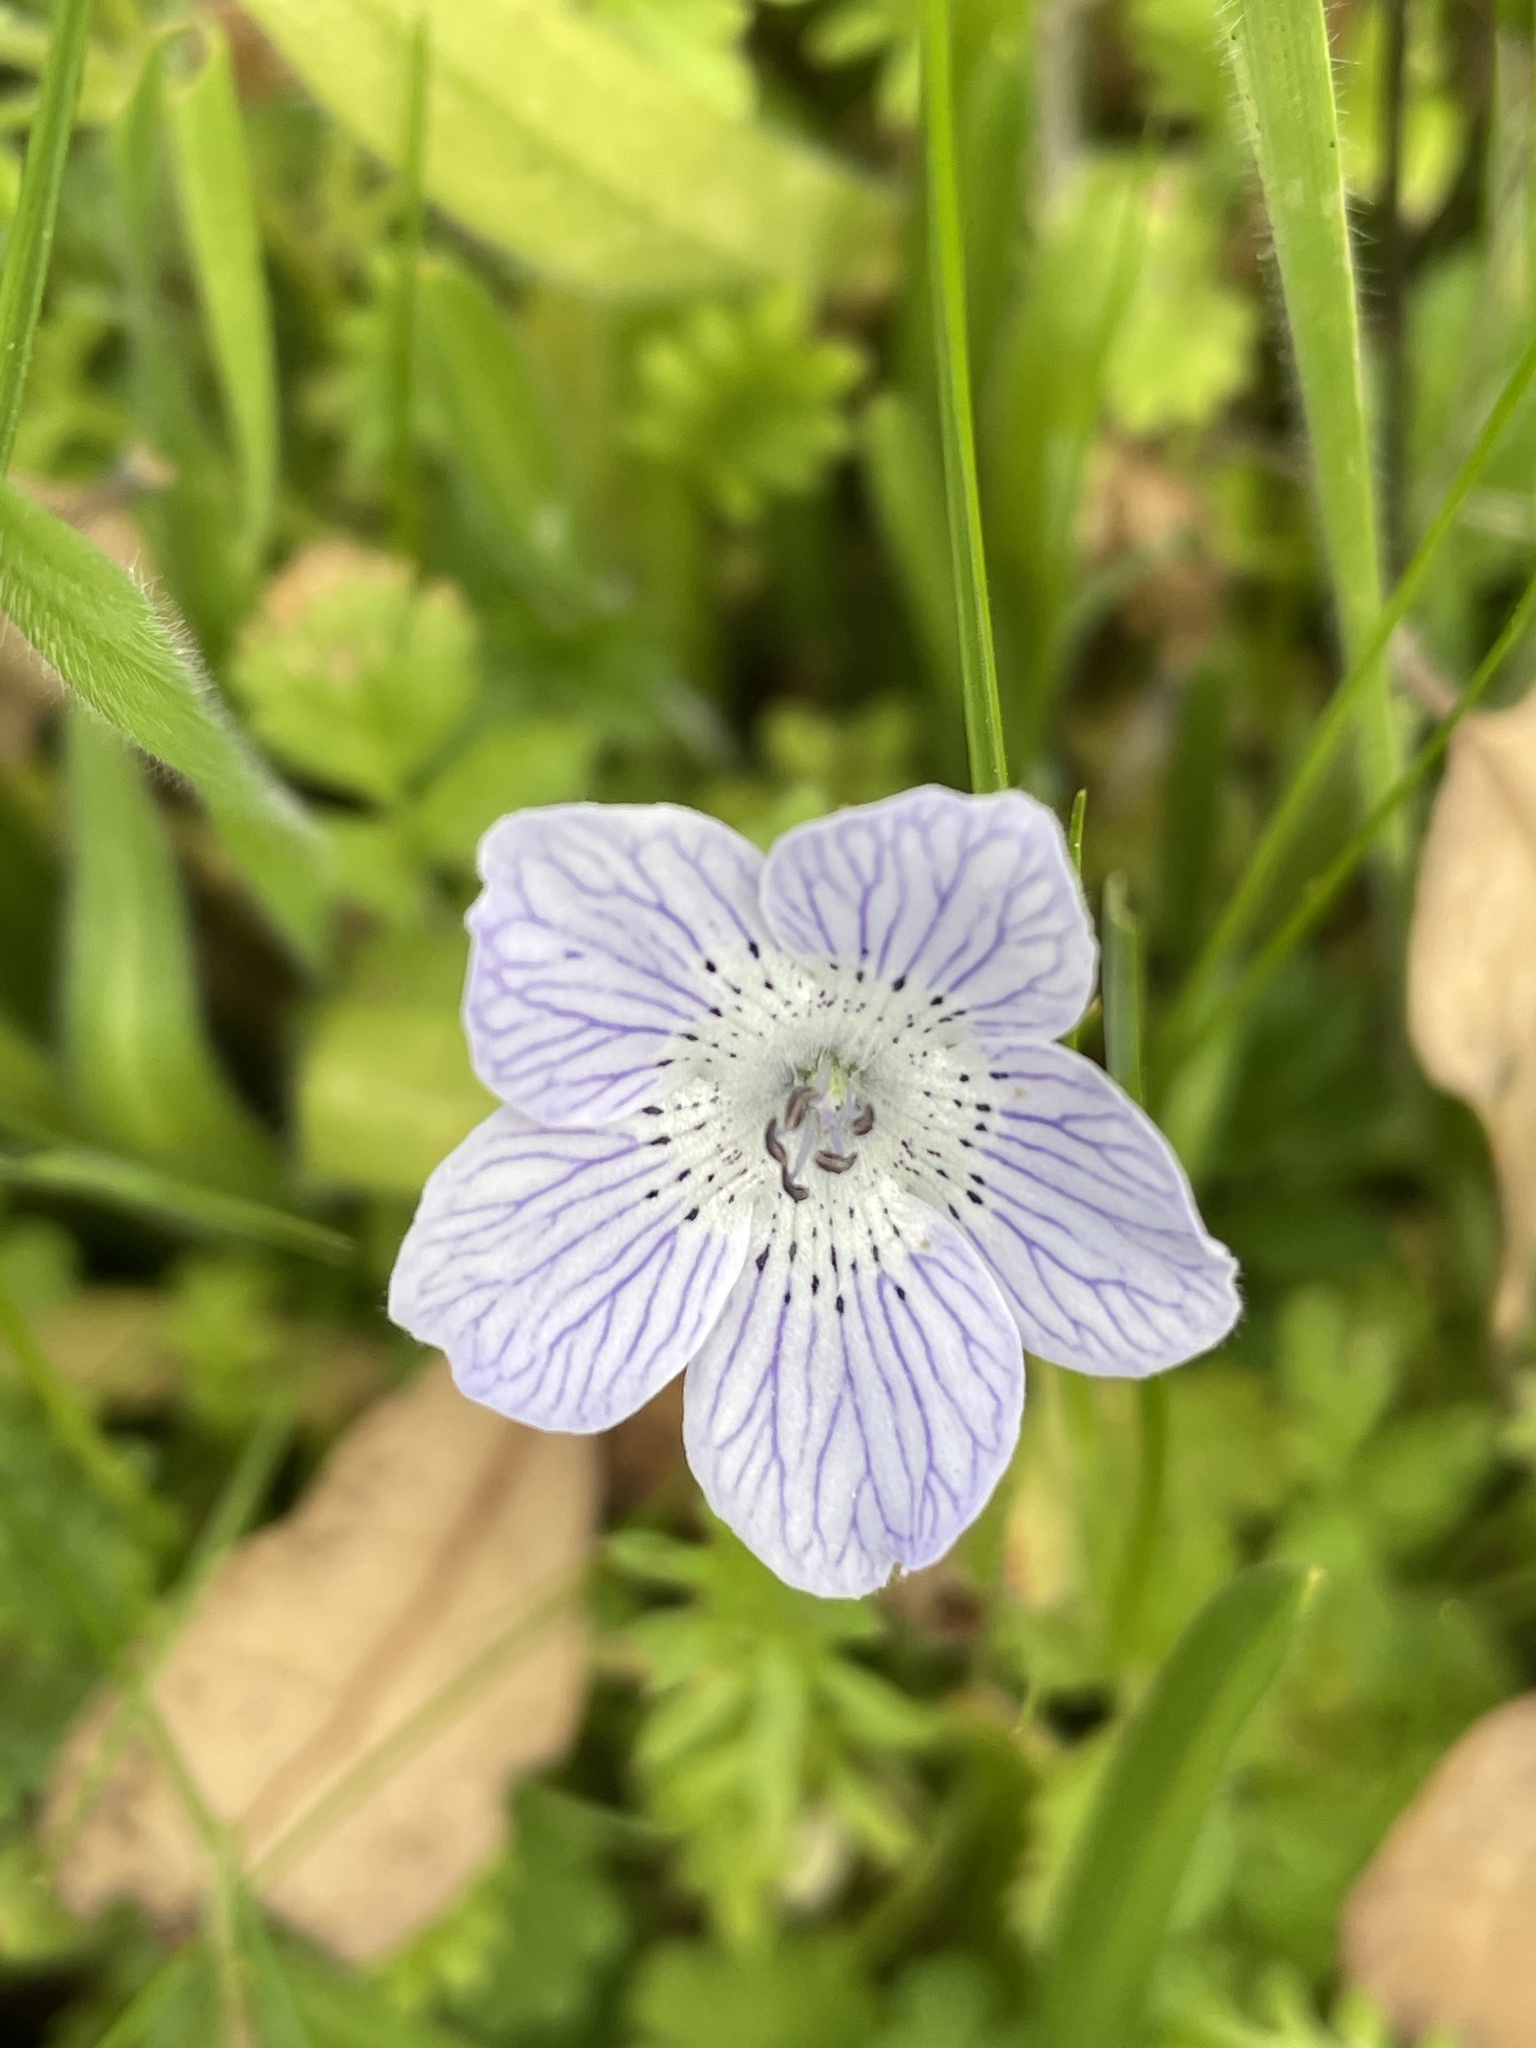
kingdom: Plantae
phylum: Tracheophyta
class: Magnoliopsida
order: Boraginales
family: Hydrophyllaceae
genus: Nemophila
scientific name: Nemophila menziesii
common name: Baby's-blue-eyes
